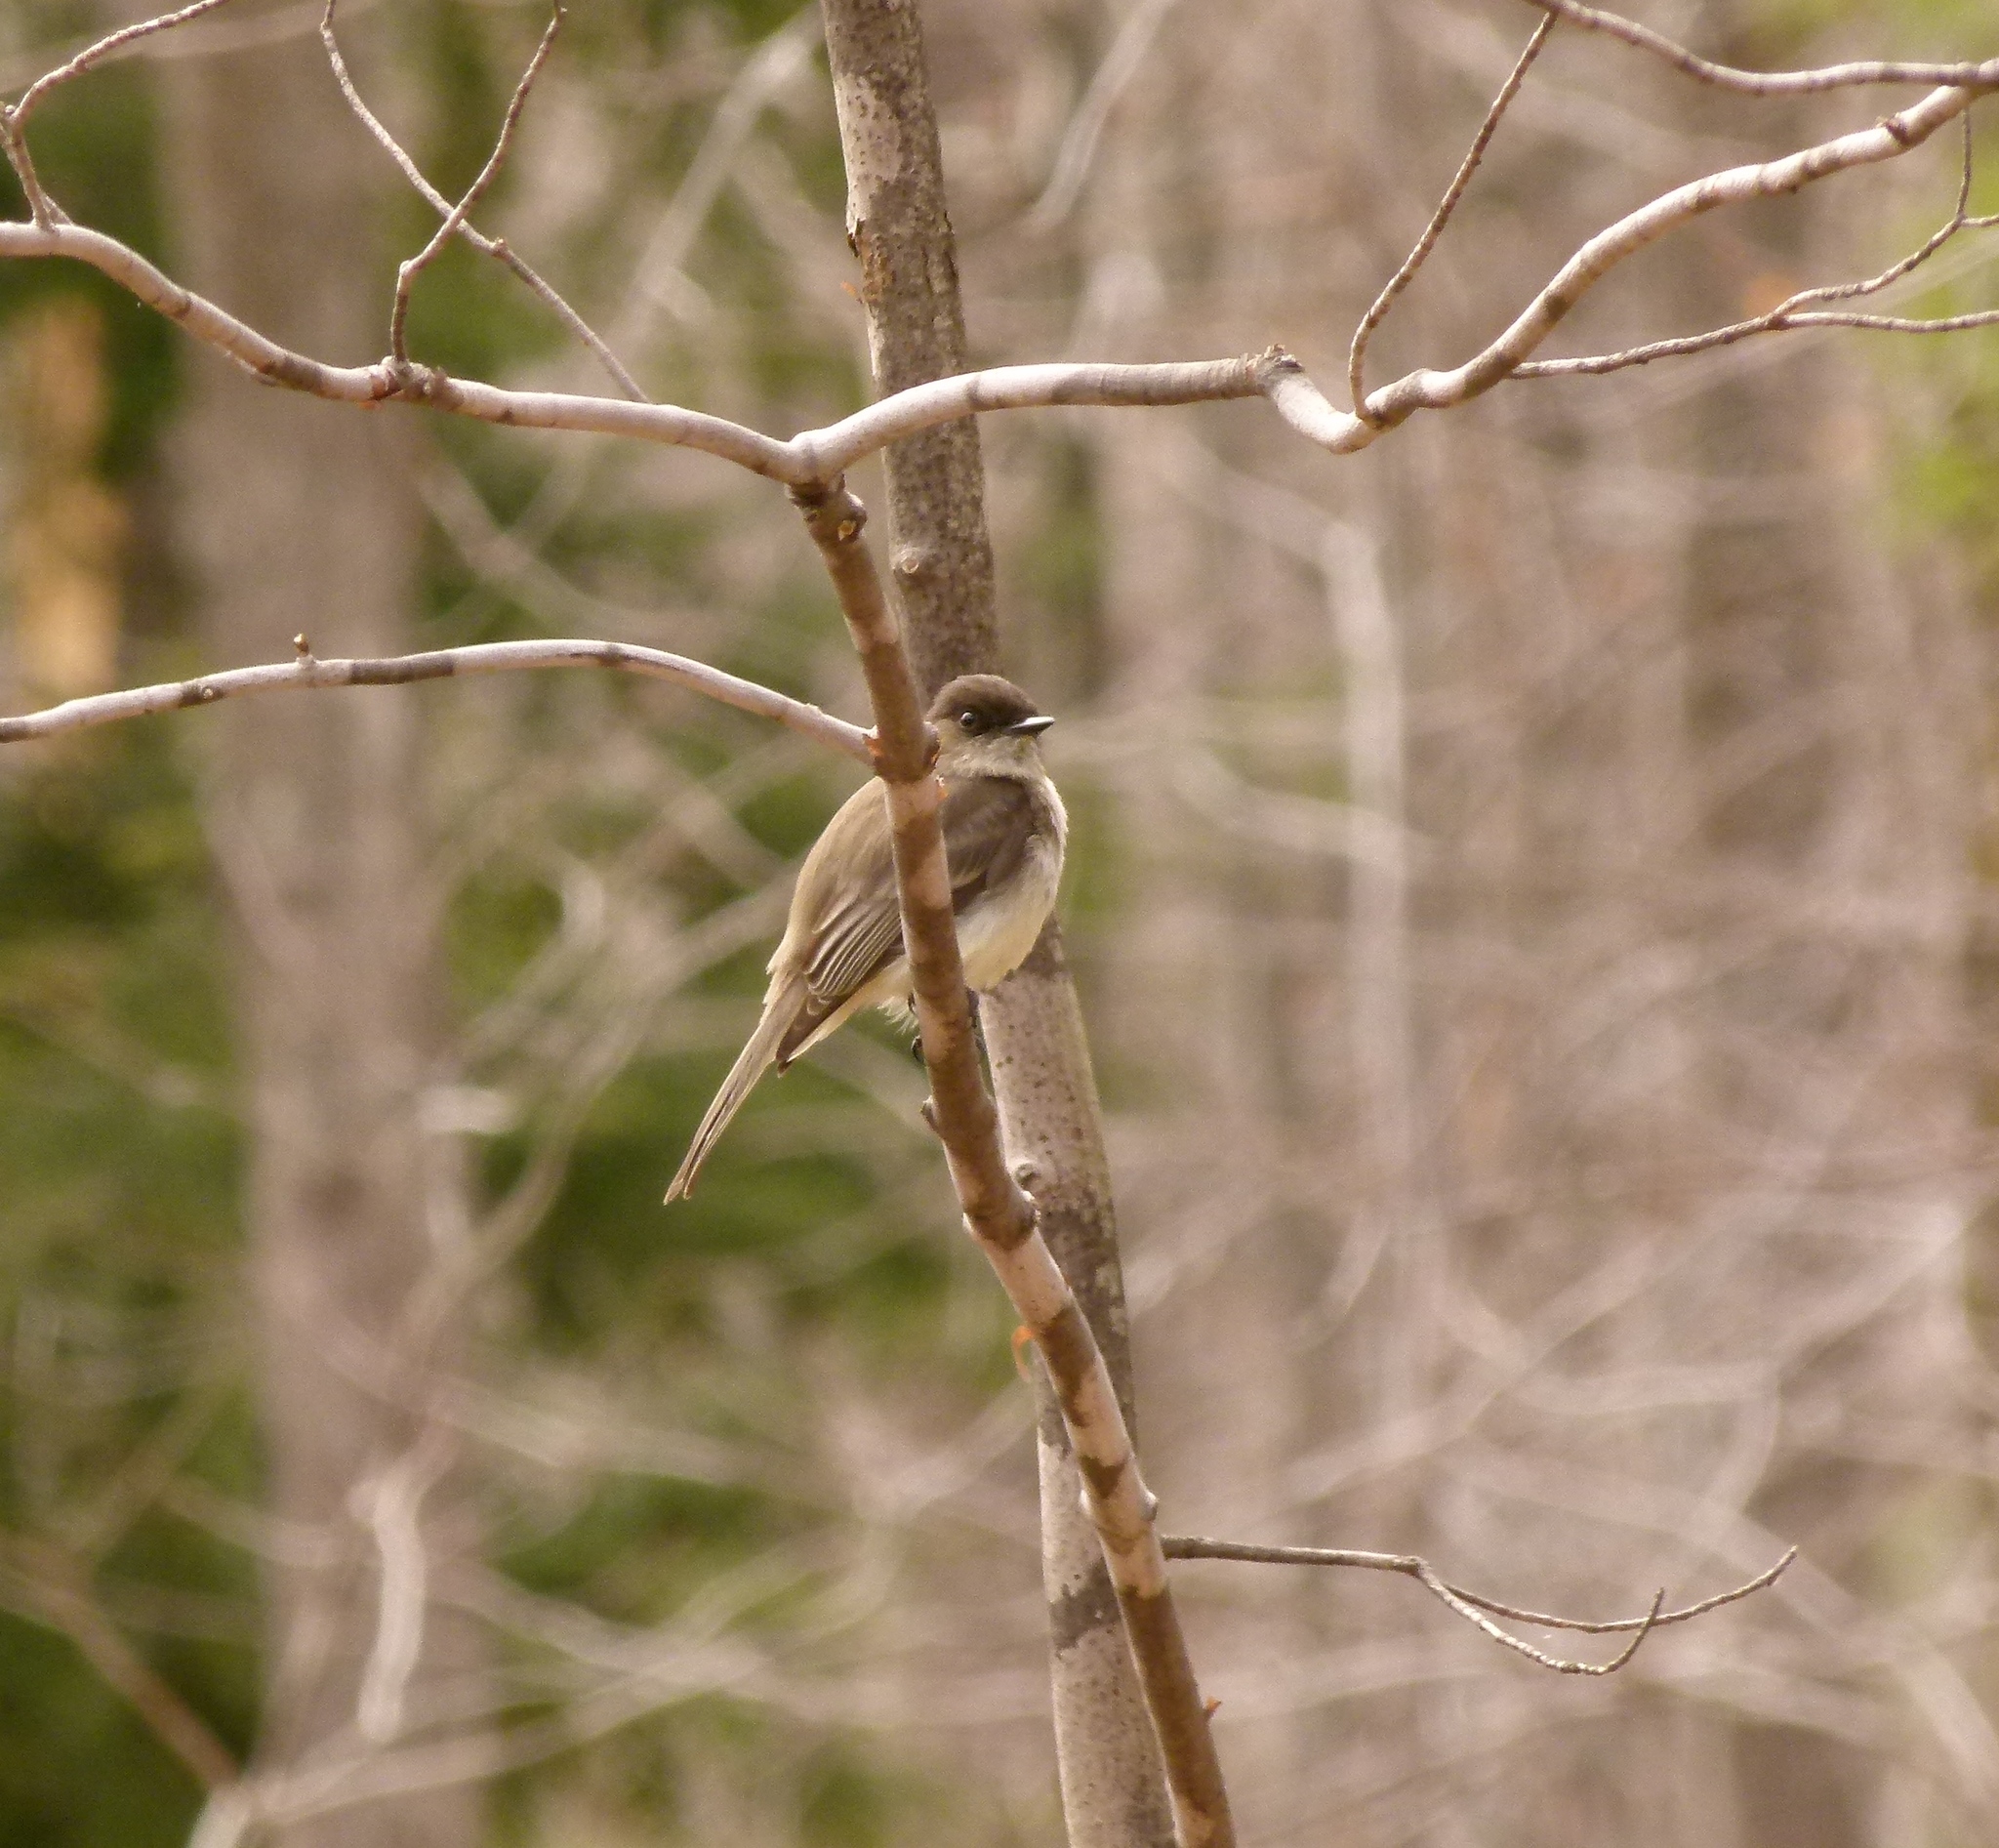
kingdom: Animalia
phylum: Chordata
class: Aves
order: Passeriformes
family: Tyrannidae
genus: Sayornis
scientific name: Sayornis phoebe
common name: Eastern phoebe
